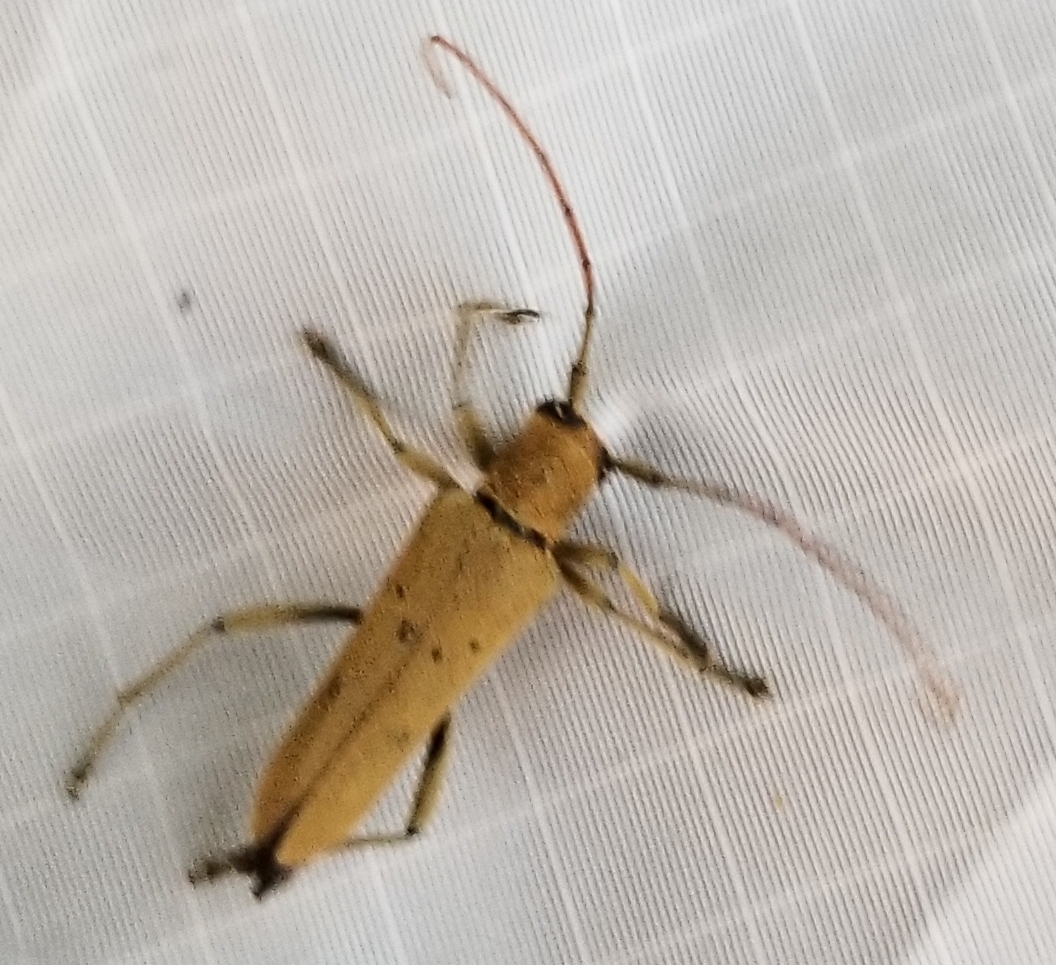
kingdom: Animalia
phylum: Arthropoda
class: Insecta
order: Coleoptera
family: Cerambycidae
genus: Saperda
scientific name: Saperda vestita
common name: Linden borer
